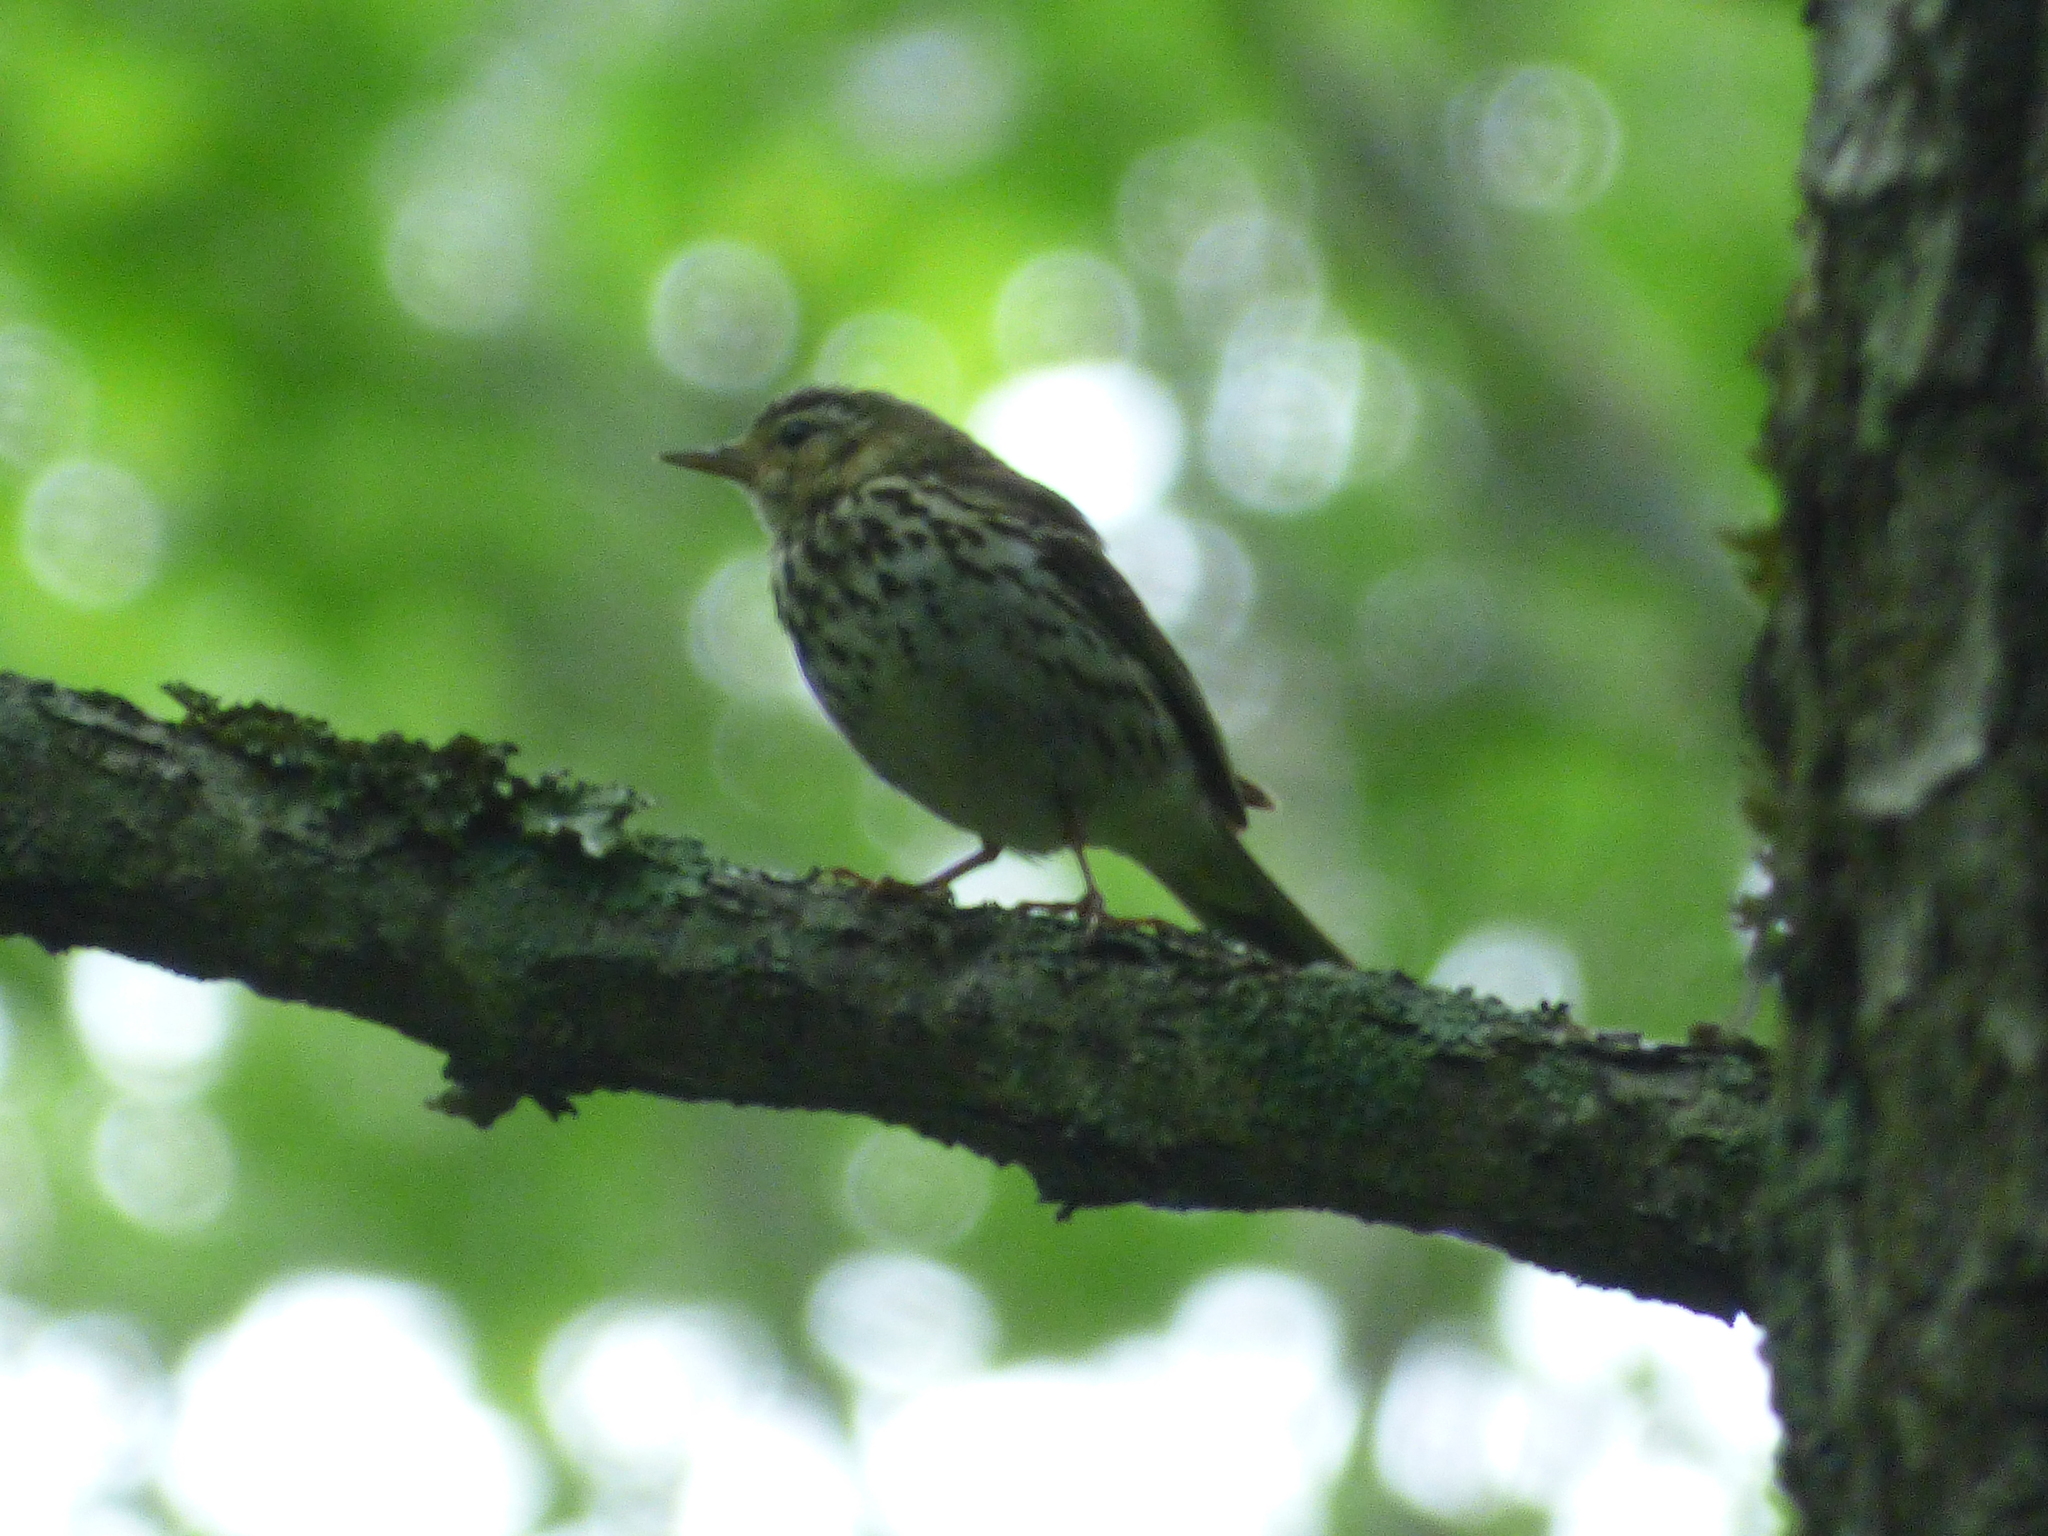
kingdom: Animalia
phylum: Chordata
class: Aves
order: Passeriformes
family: Motacillidae
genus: Anthus
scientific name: Anthus hodgsoni
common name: Olive-backed pipit
